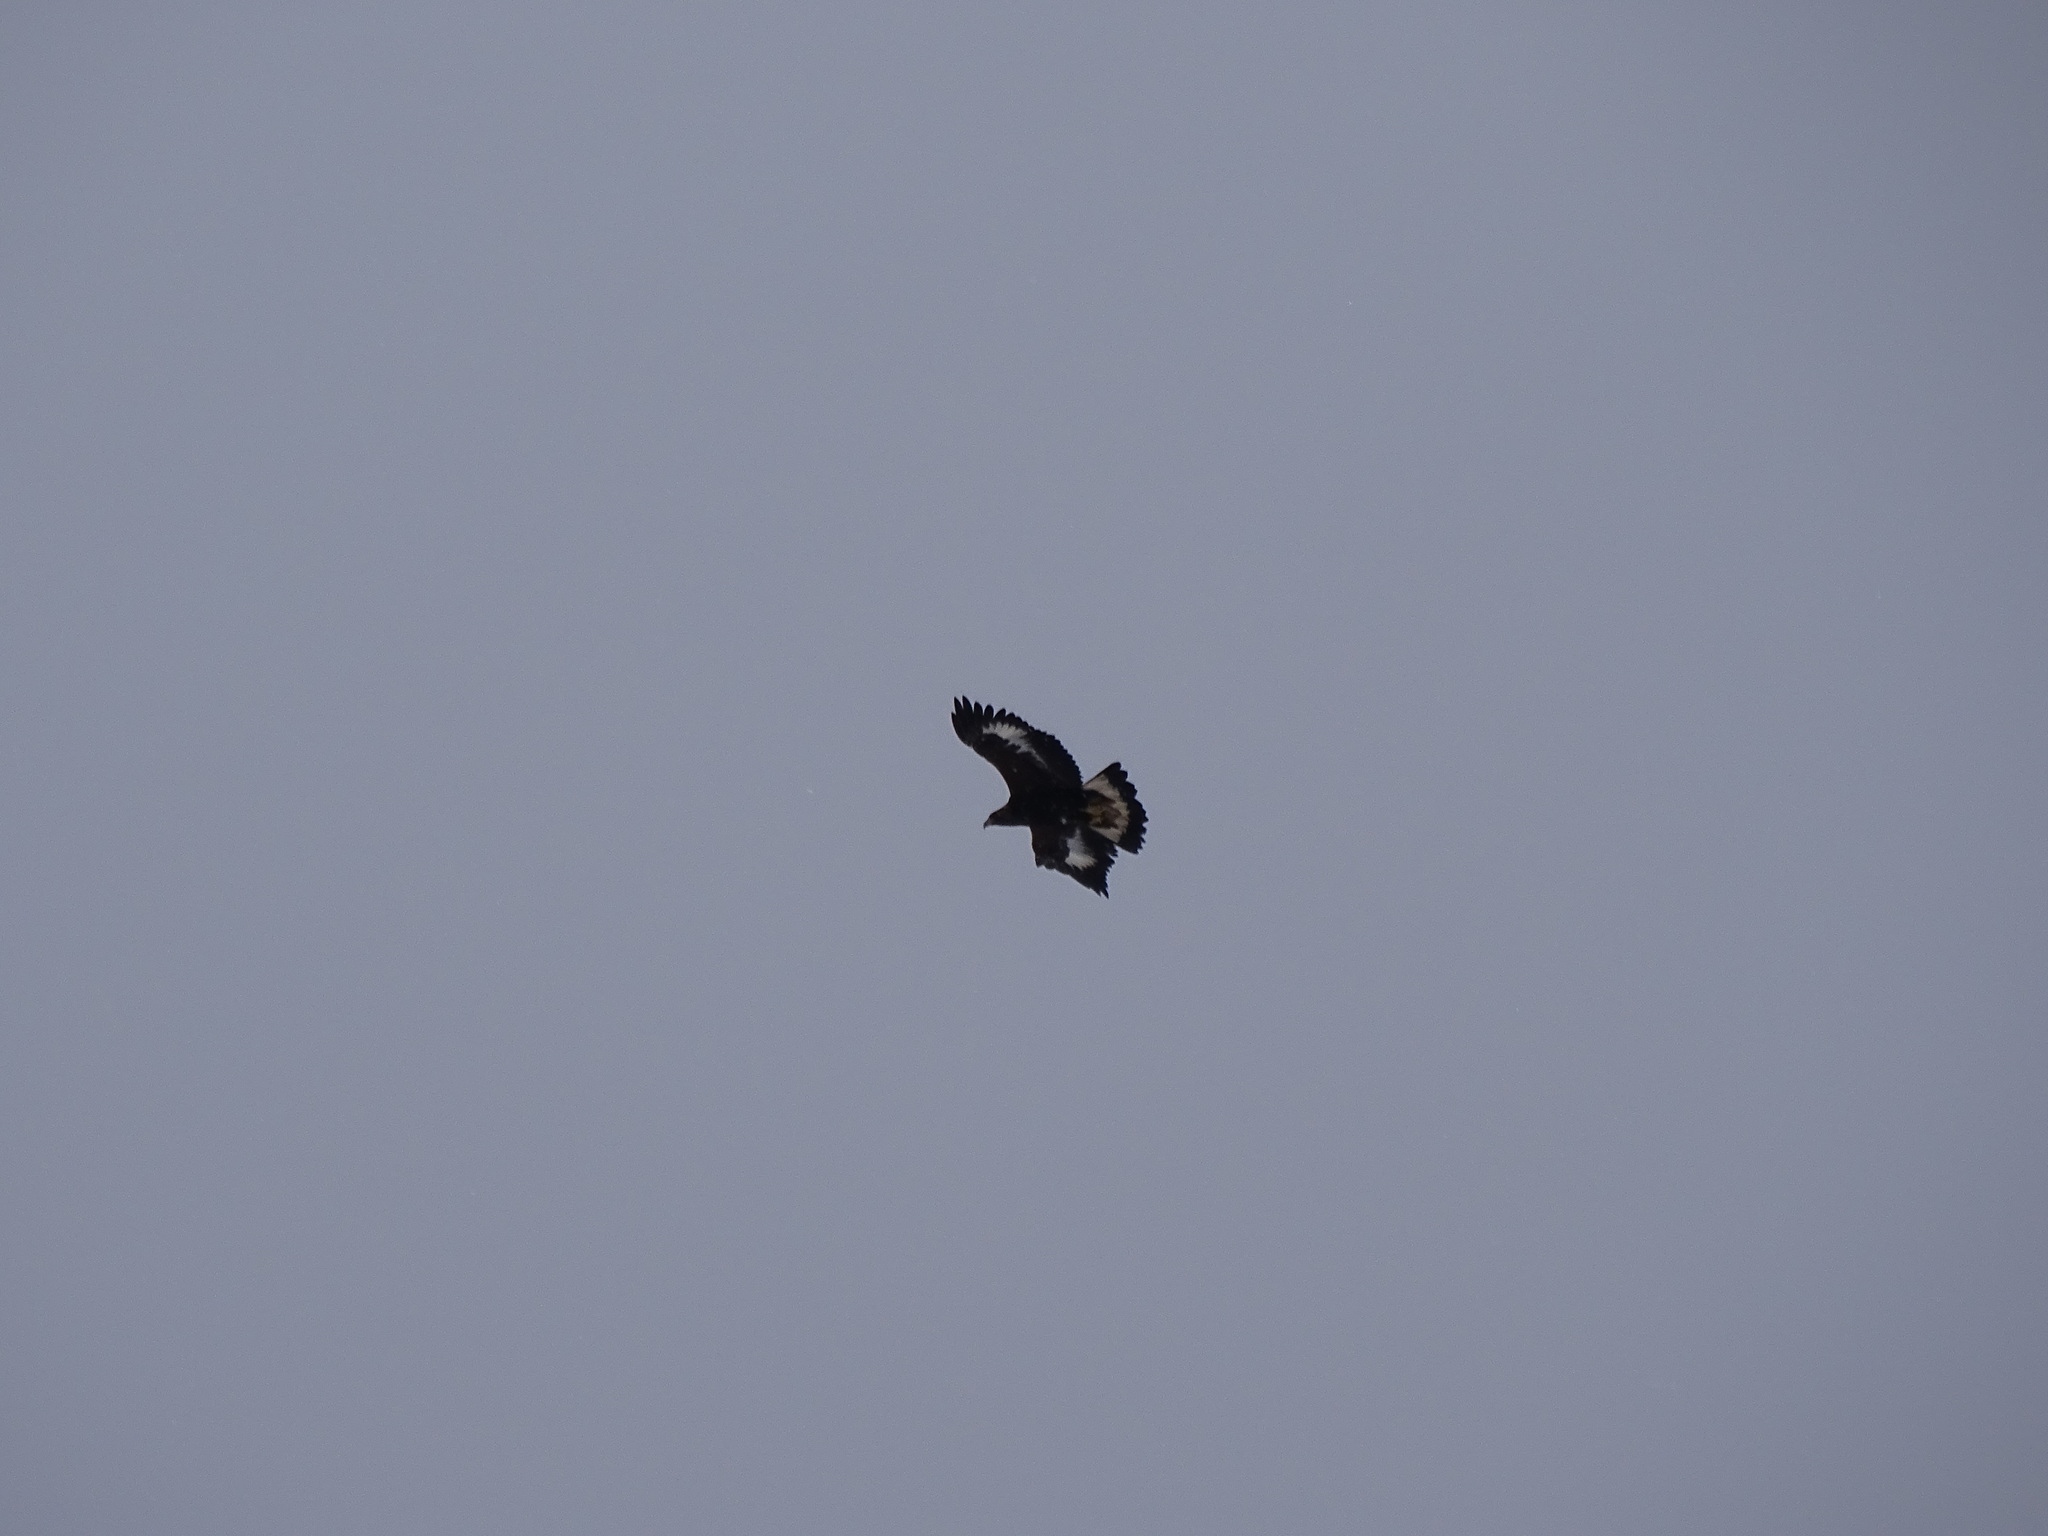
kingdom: Animalia
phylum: Chordata
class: Aves
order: Accipitriformes
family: Accipitridae
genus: Aquila
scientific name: Aquila chrysaetos
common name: Golden eagle
